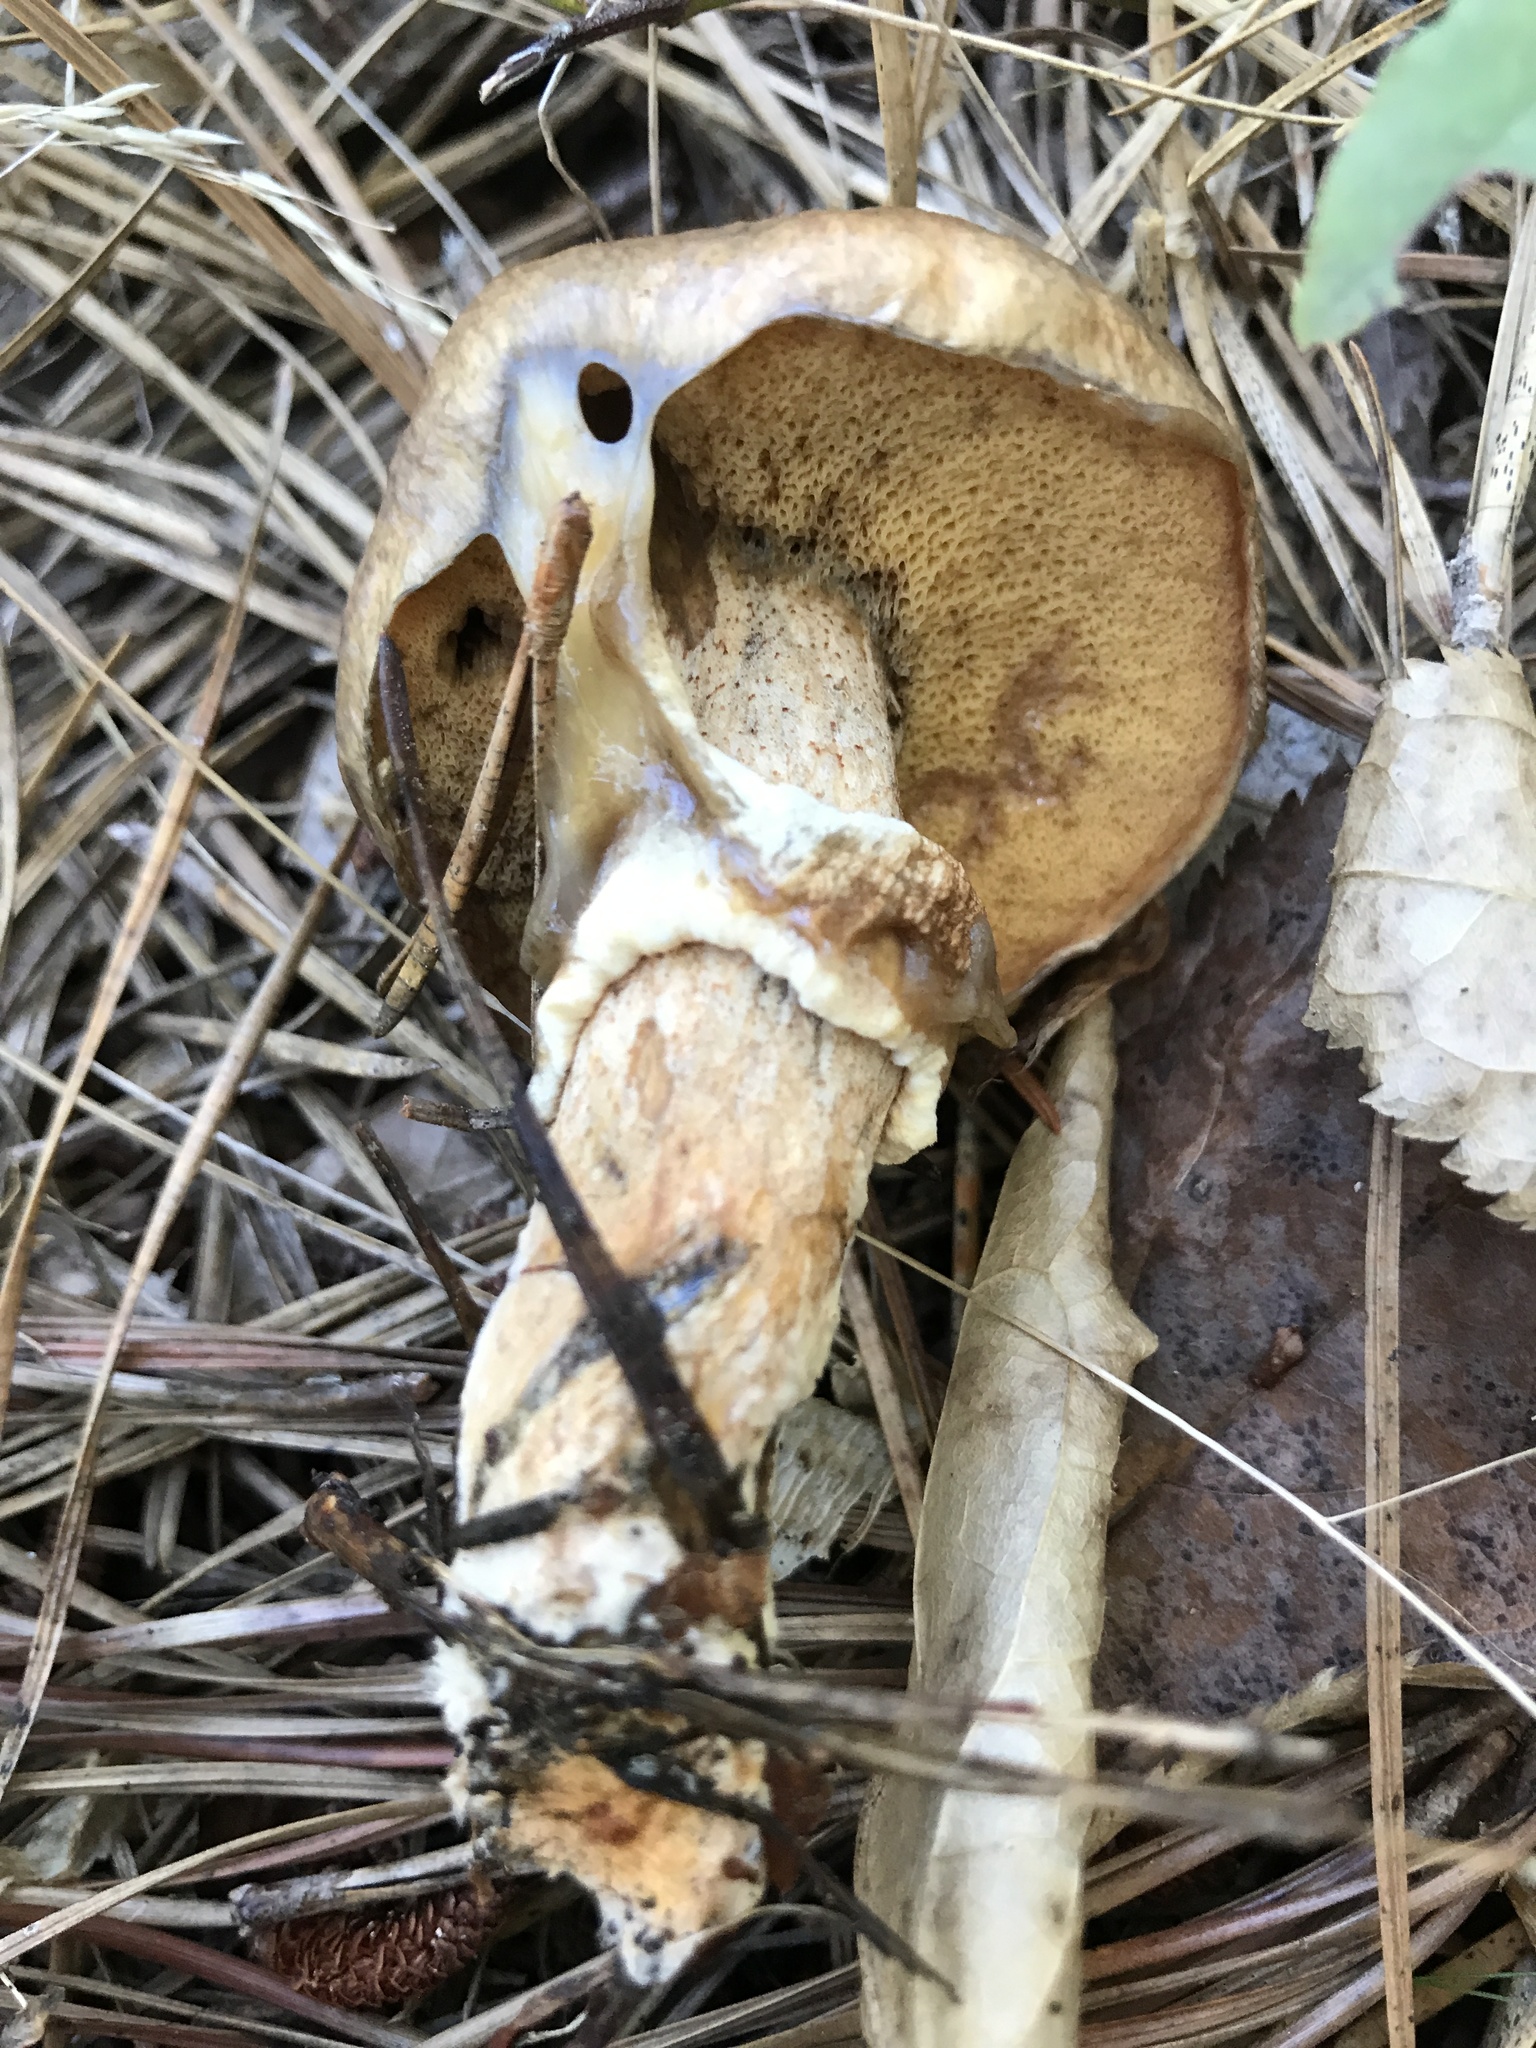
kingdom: Fungi
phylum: Basidiomycota
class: Agaricomycetes
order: Boletales
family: Suillaceae
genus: Suillus
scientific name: Suillus salmonicolor
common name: Slippery jill
